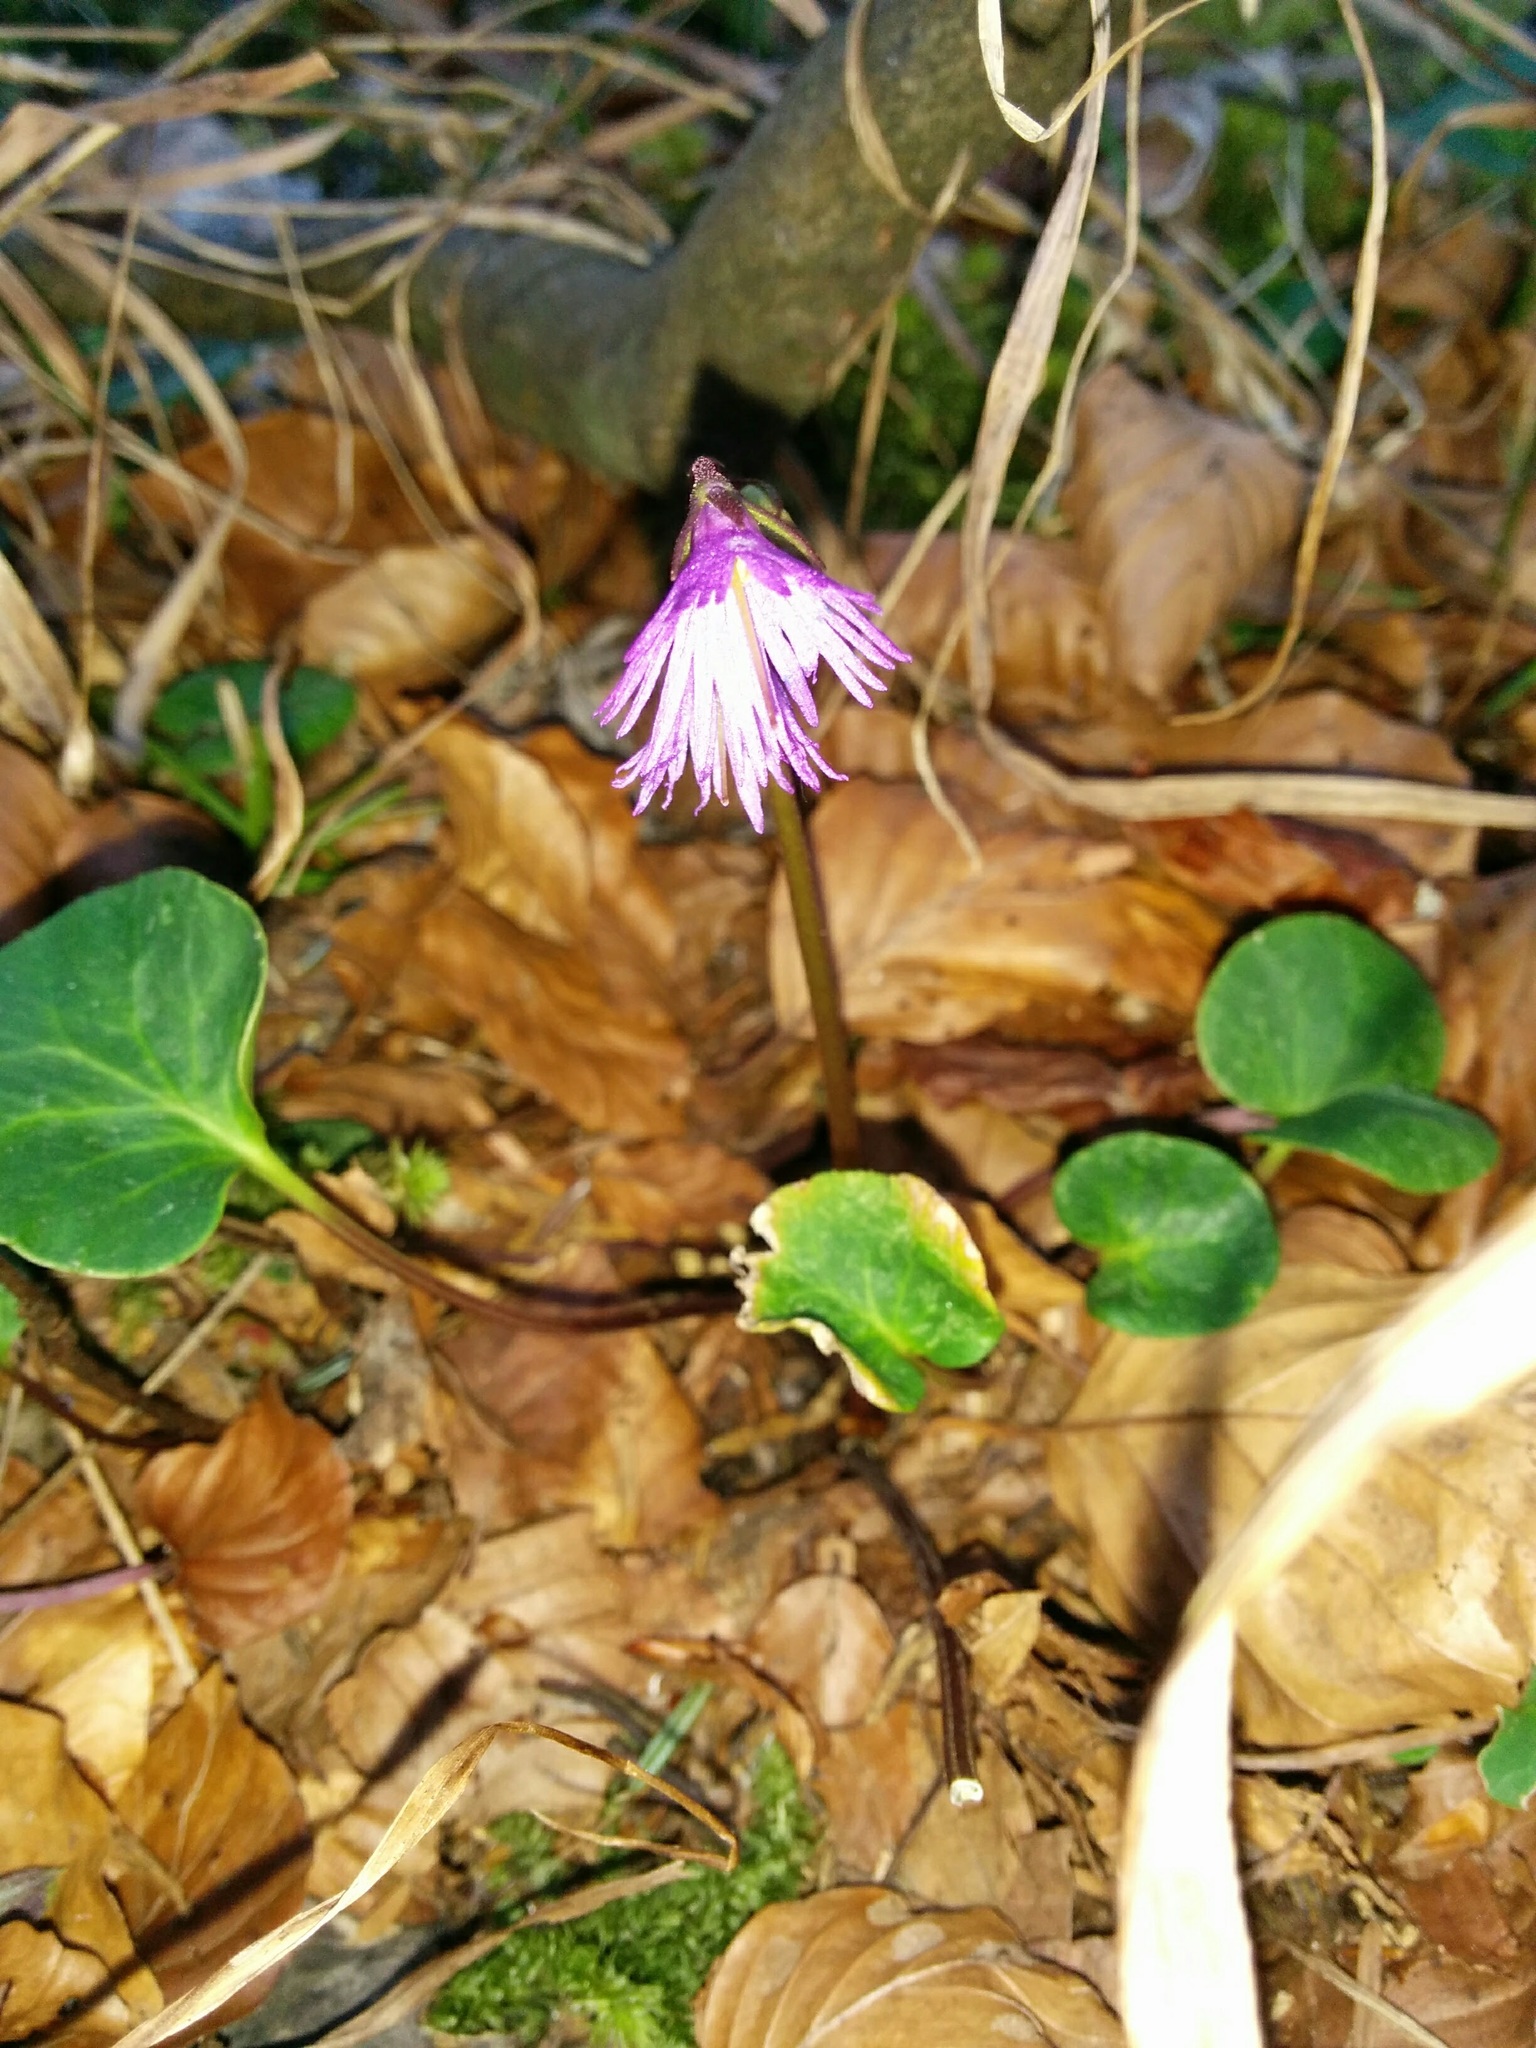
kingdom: Plantae
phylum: Tracheophyta
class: Magnoliopsida
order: Ericales
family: Primulaceae
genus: Soldanella
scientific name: Soldanella alpina
